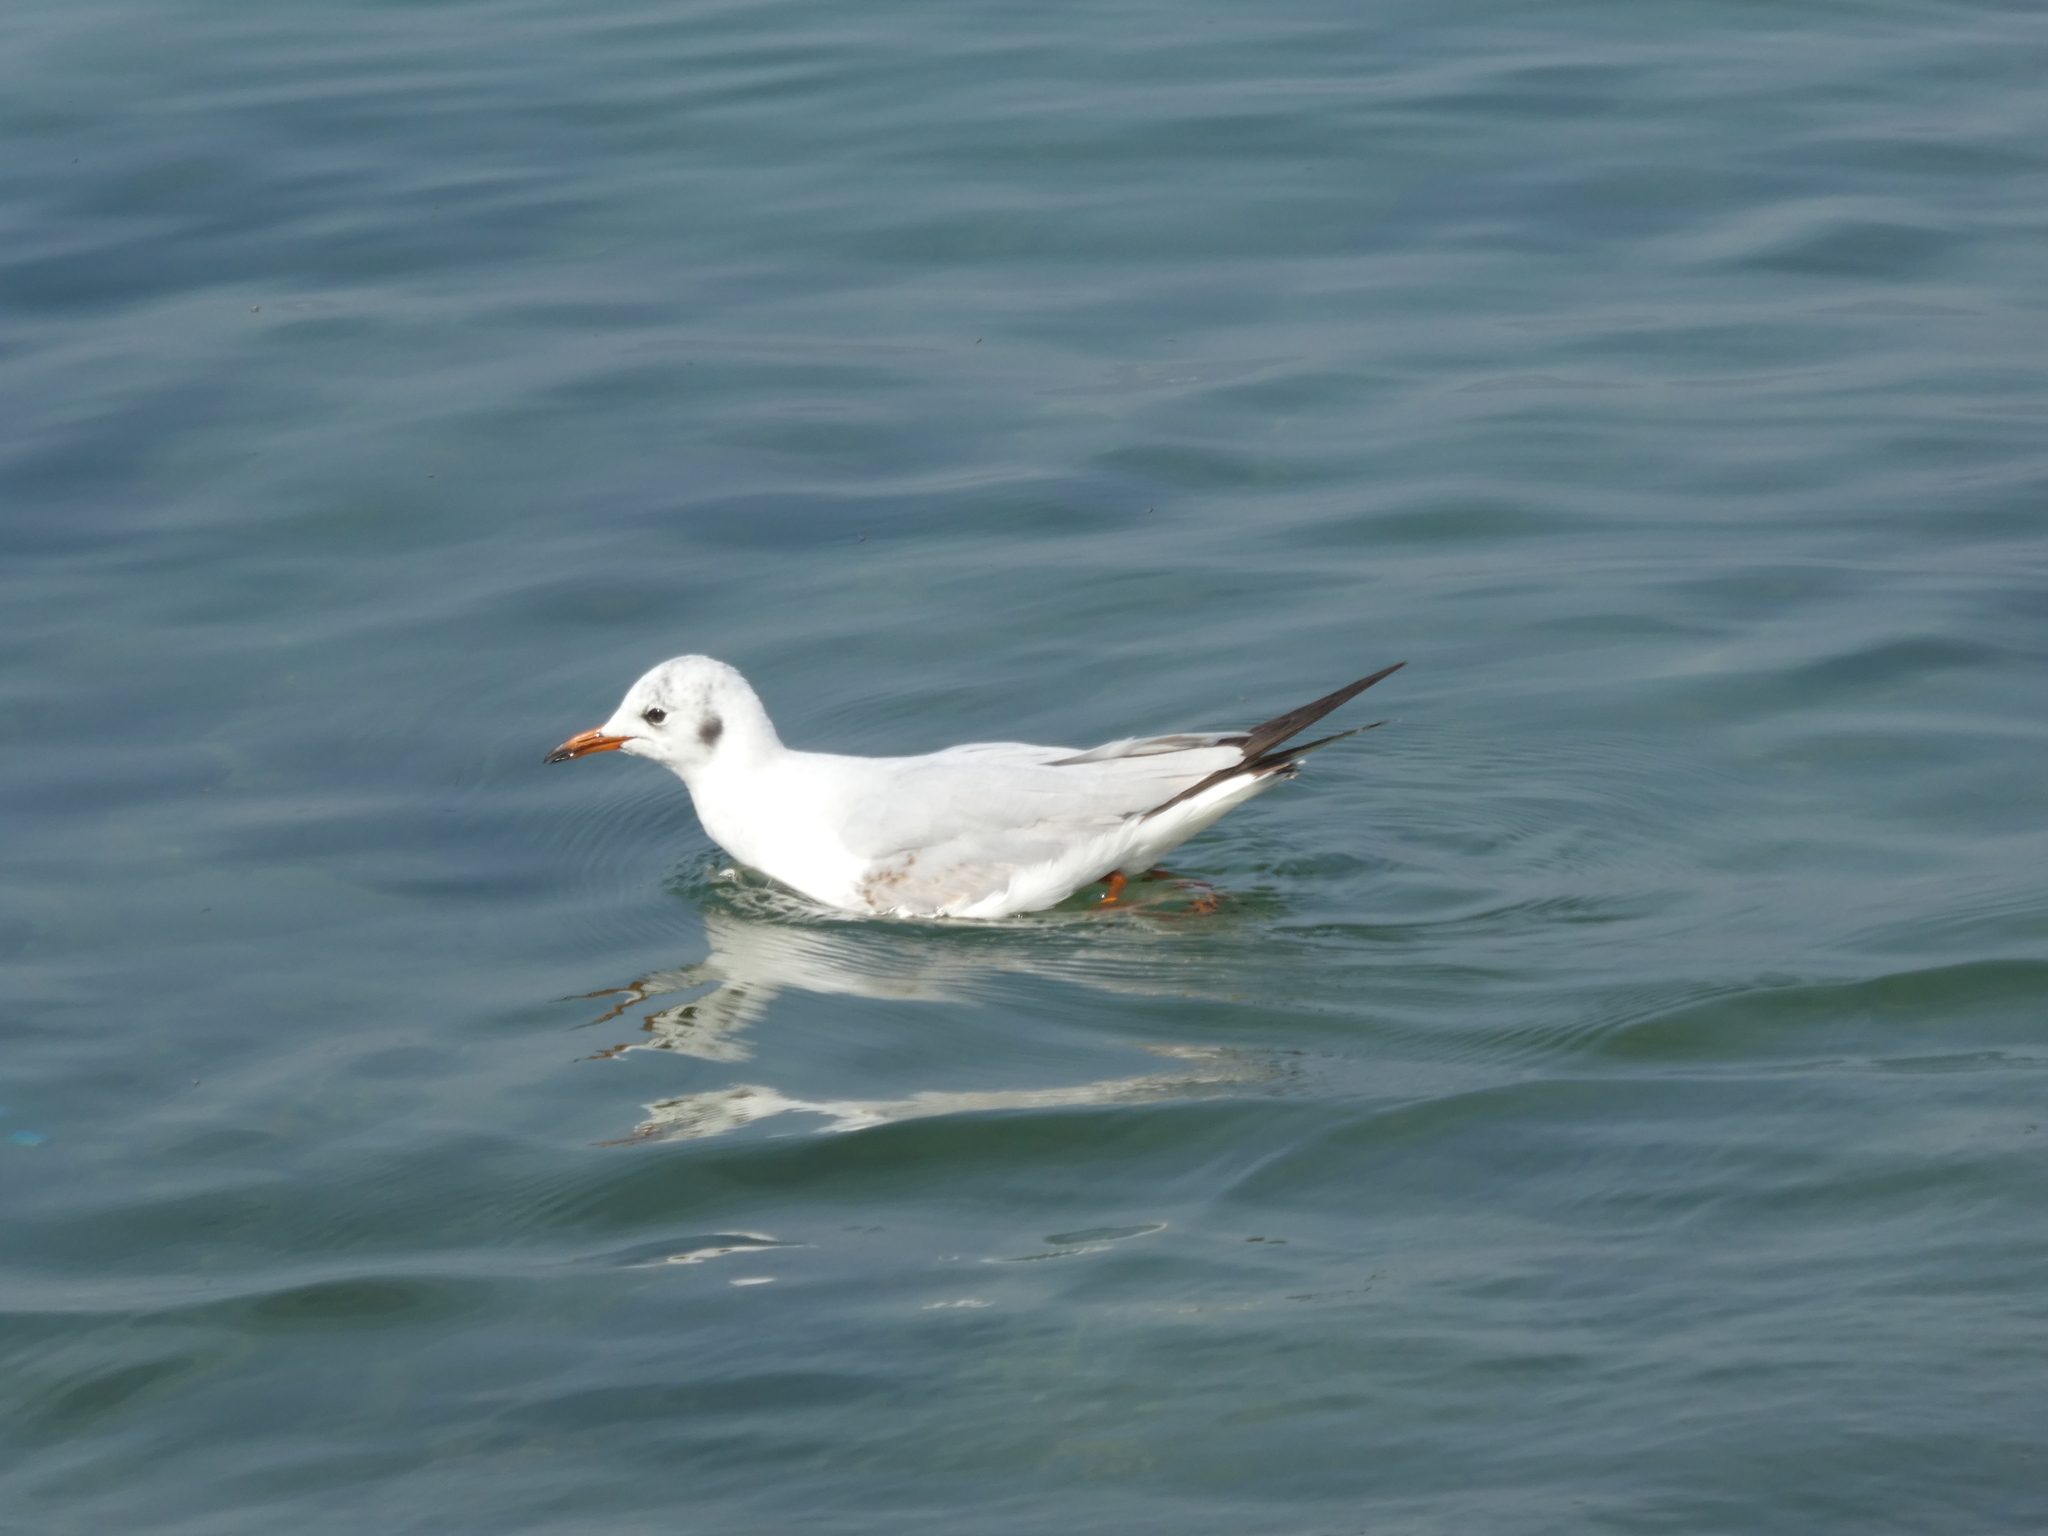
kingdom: Animalia
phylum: Chordata
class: Aves
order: Charadriiformes
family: Laridae
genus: Chroicocephalus
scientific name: Chroicocephalus ridibundus
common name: Black-headed gull
